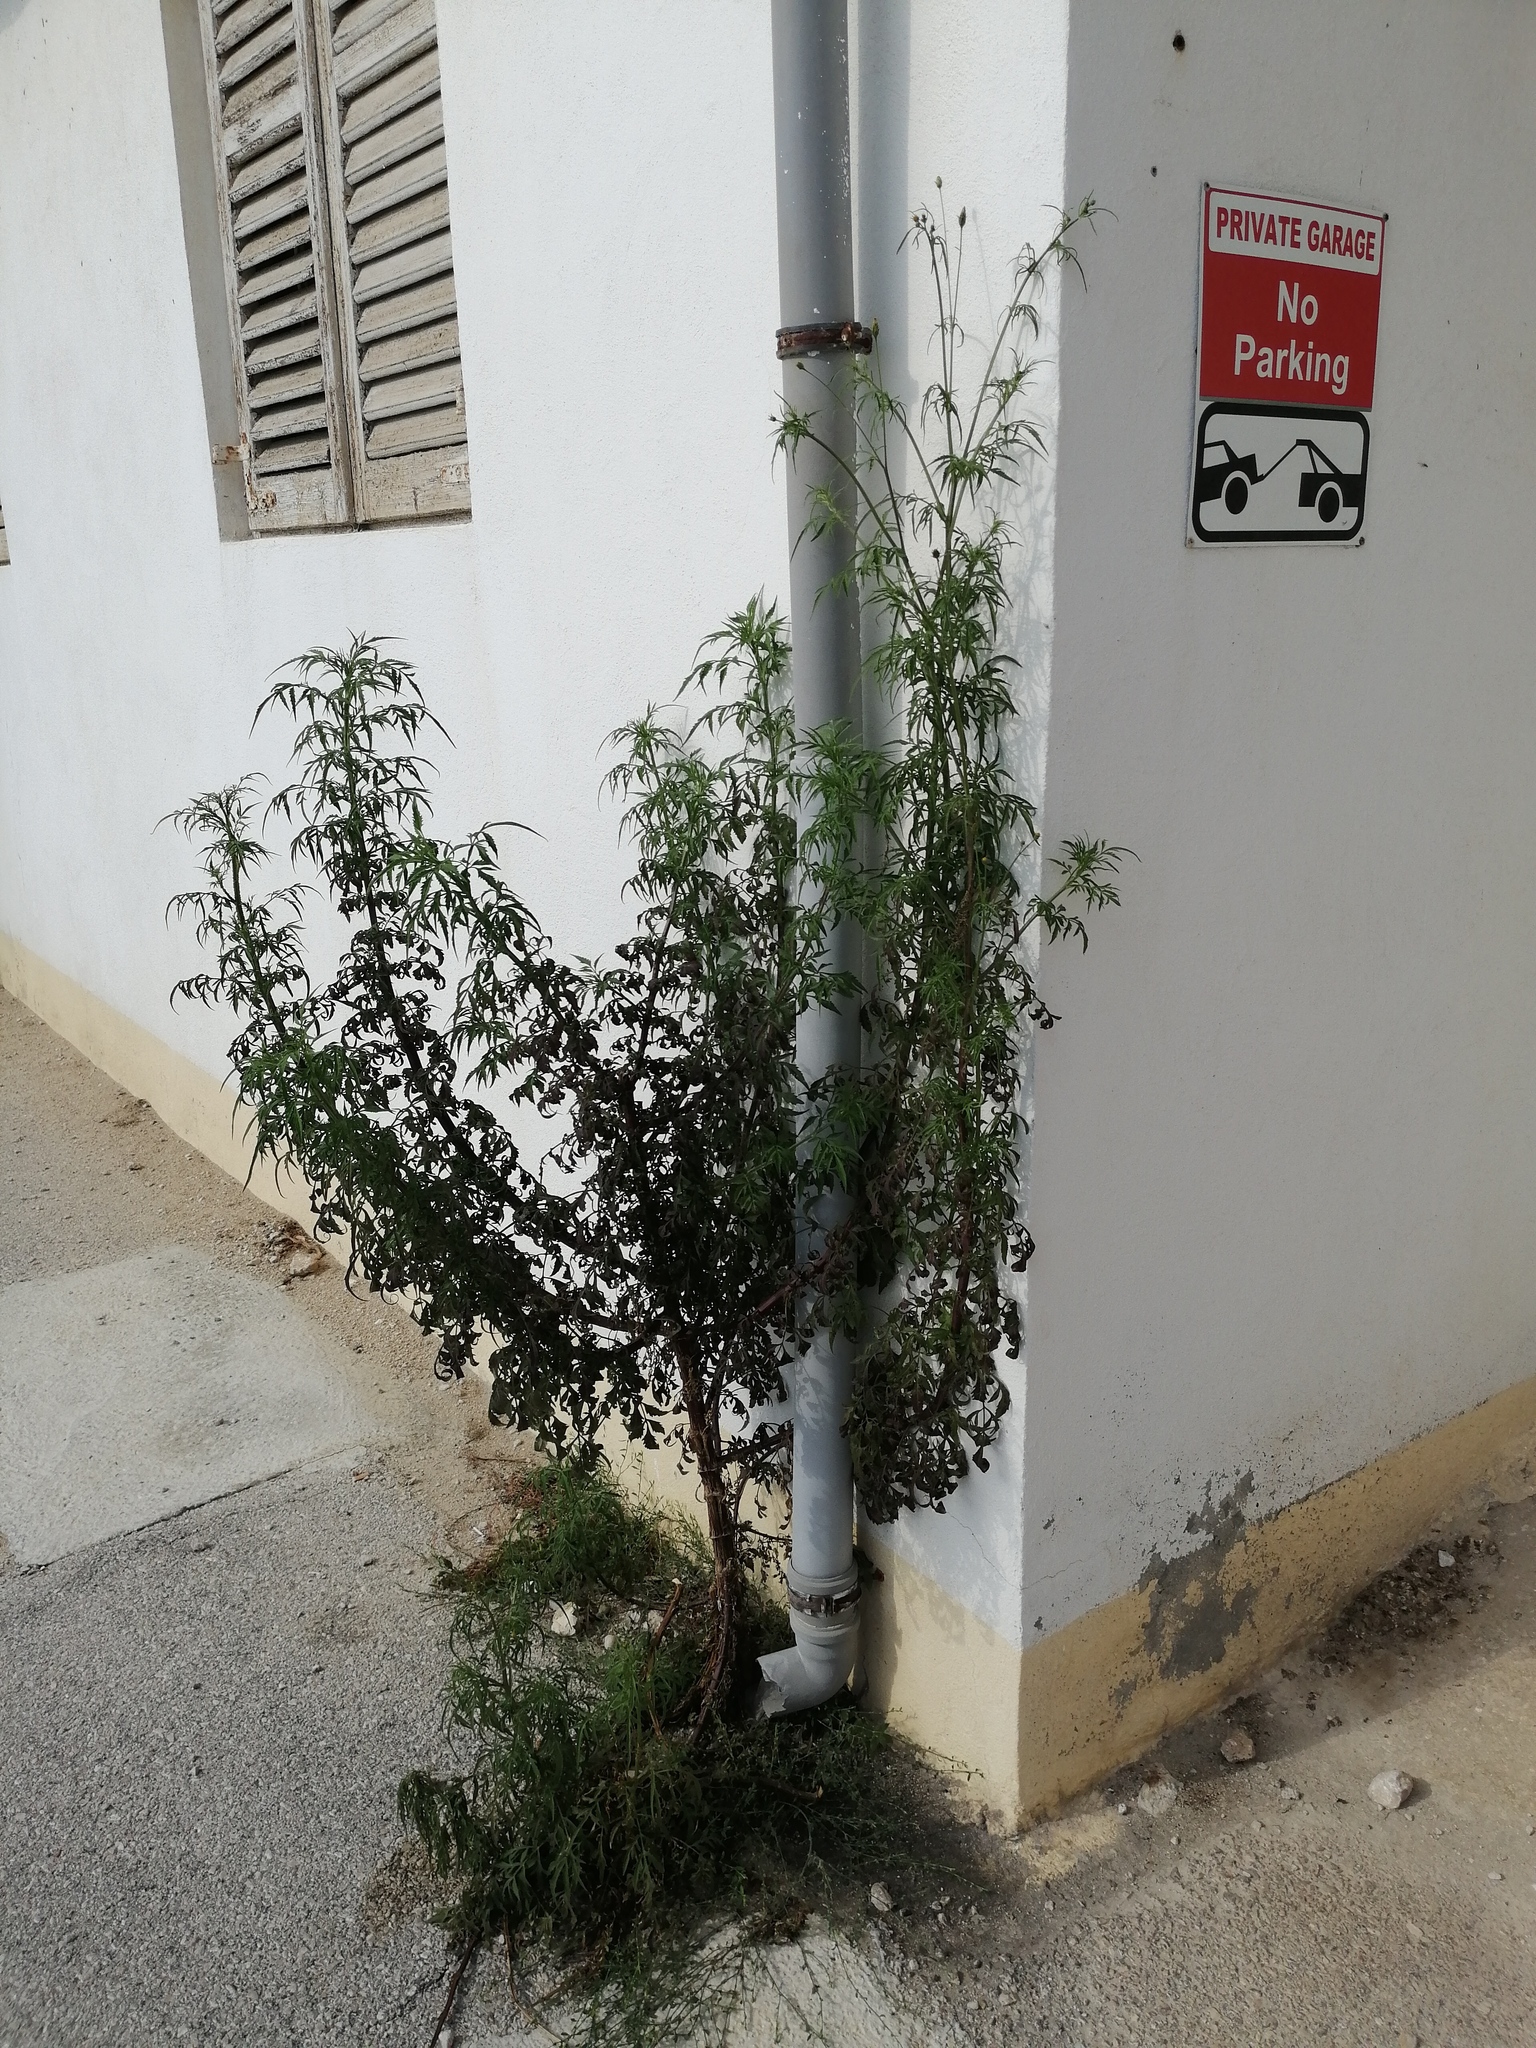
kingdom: Plantae
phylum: Tracheophyta
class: Magnoliopsida
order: Asterales
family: Asteraceae
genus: Bidens
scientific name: Bidens subalternans
